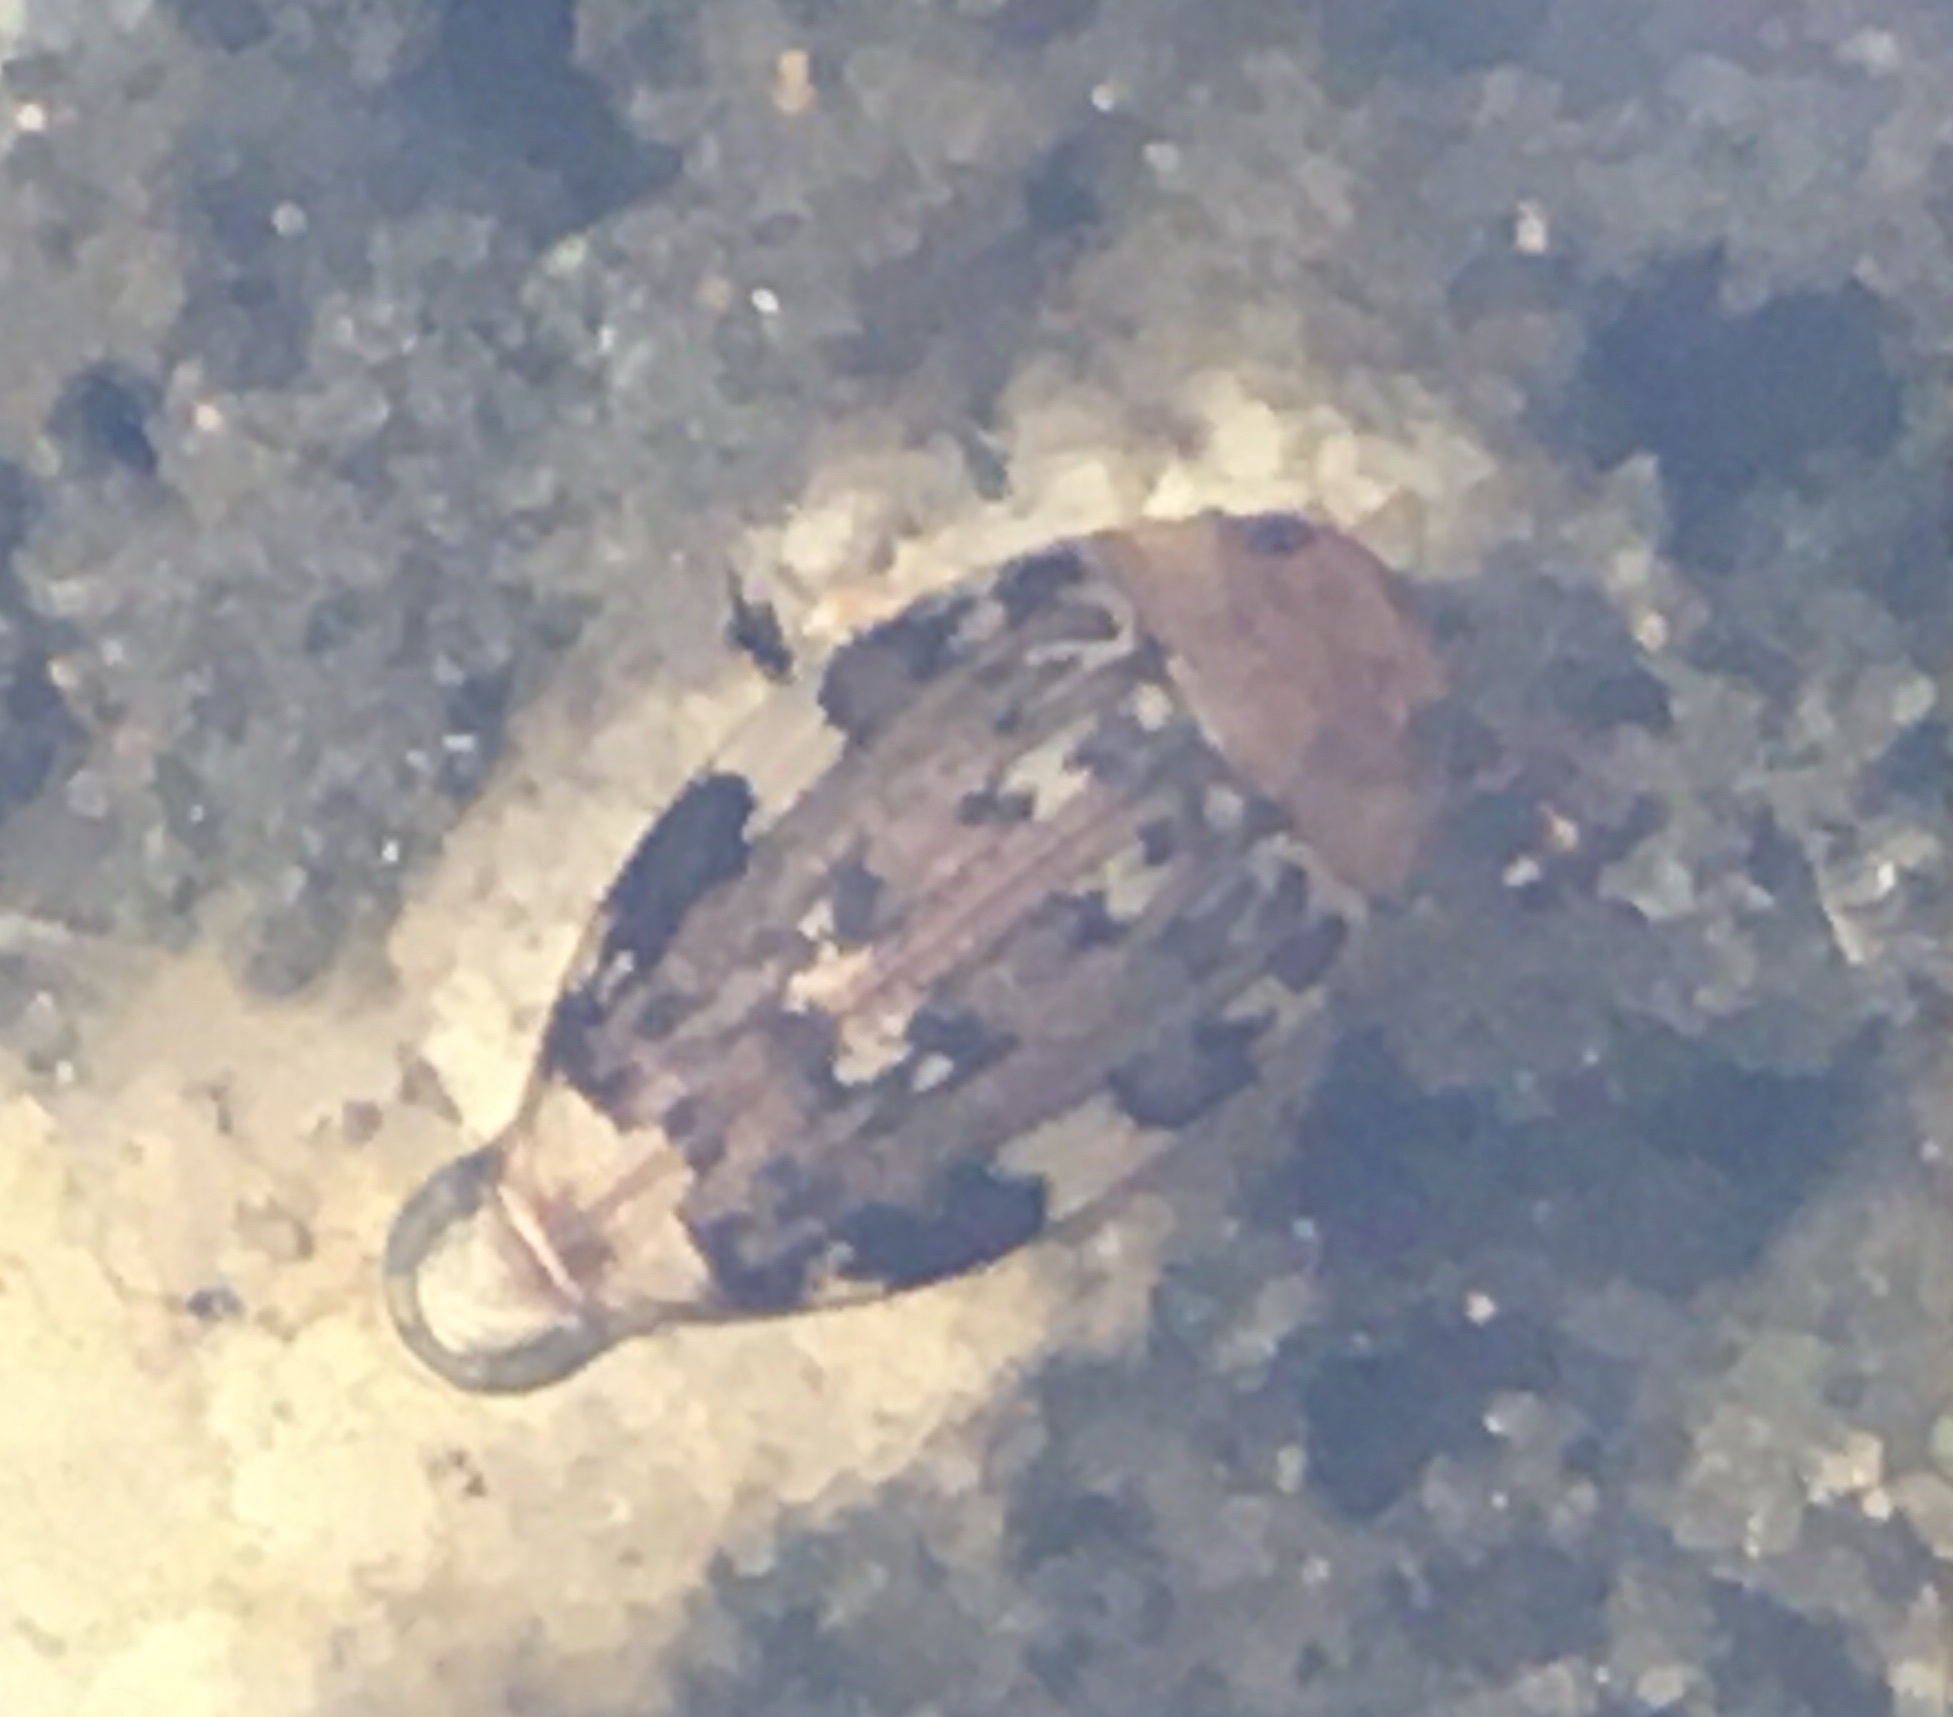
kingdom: Animalia
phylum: Arthropoda
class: Insecta
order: Coleoptera
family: Dytiscidae
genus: Laccophilus
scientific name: Laccophilus maculosus
